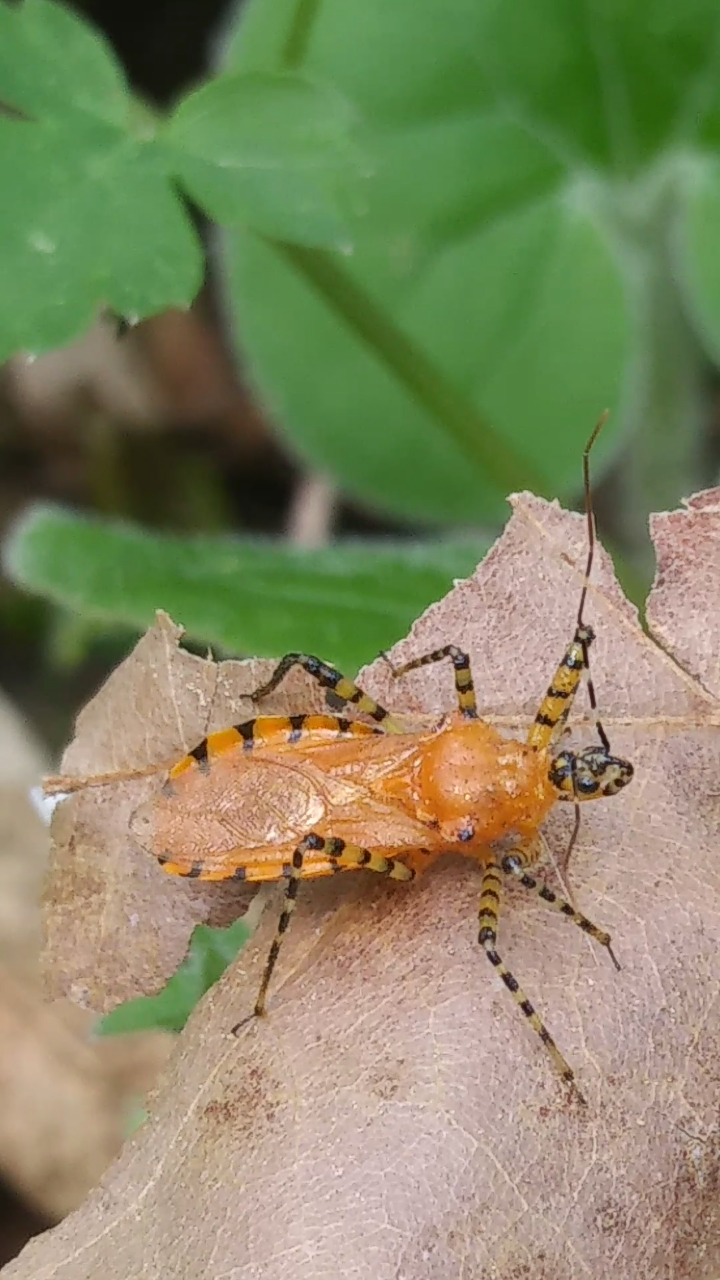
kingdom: Animalia
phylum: Arthropoda
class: Insecta
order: Hemiptera
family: Reduviidae
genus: Pselliopus
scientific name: Pselliopus barberi
